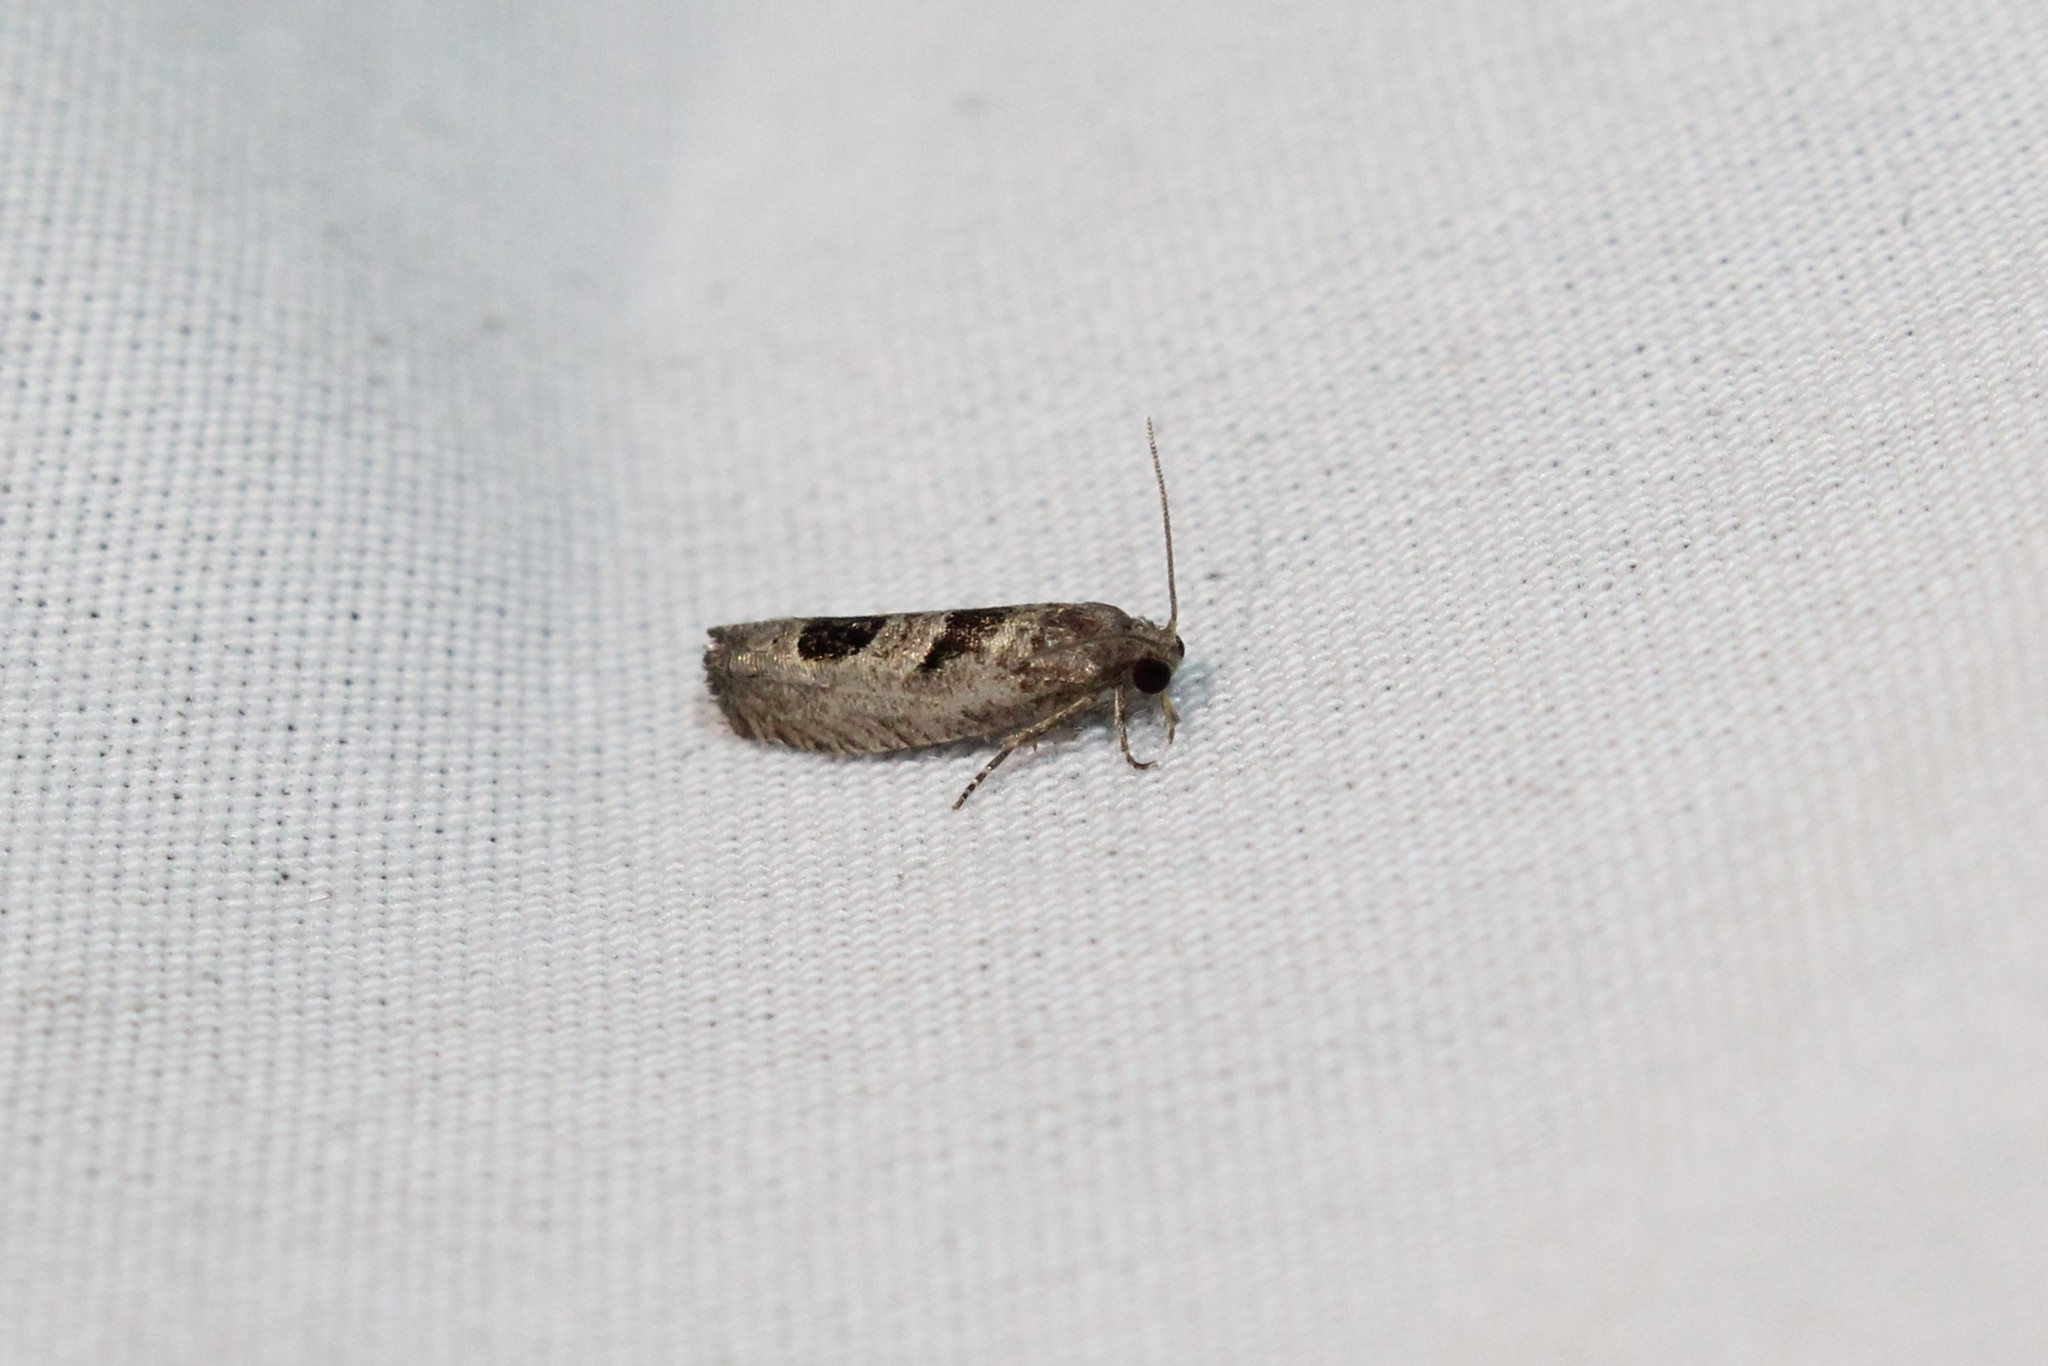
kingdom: Animalia
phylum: Arthropoda
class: Insecta
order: Lepidoptera
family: Tortricidae
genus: Eucosma
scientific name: Eucosma tomonana
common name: Aster-head eucosma moth
